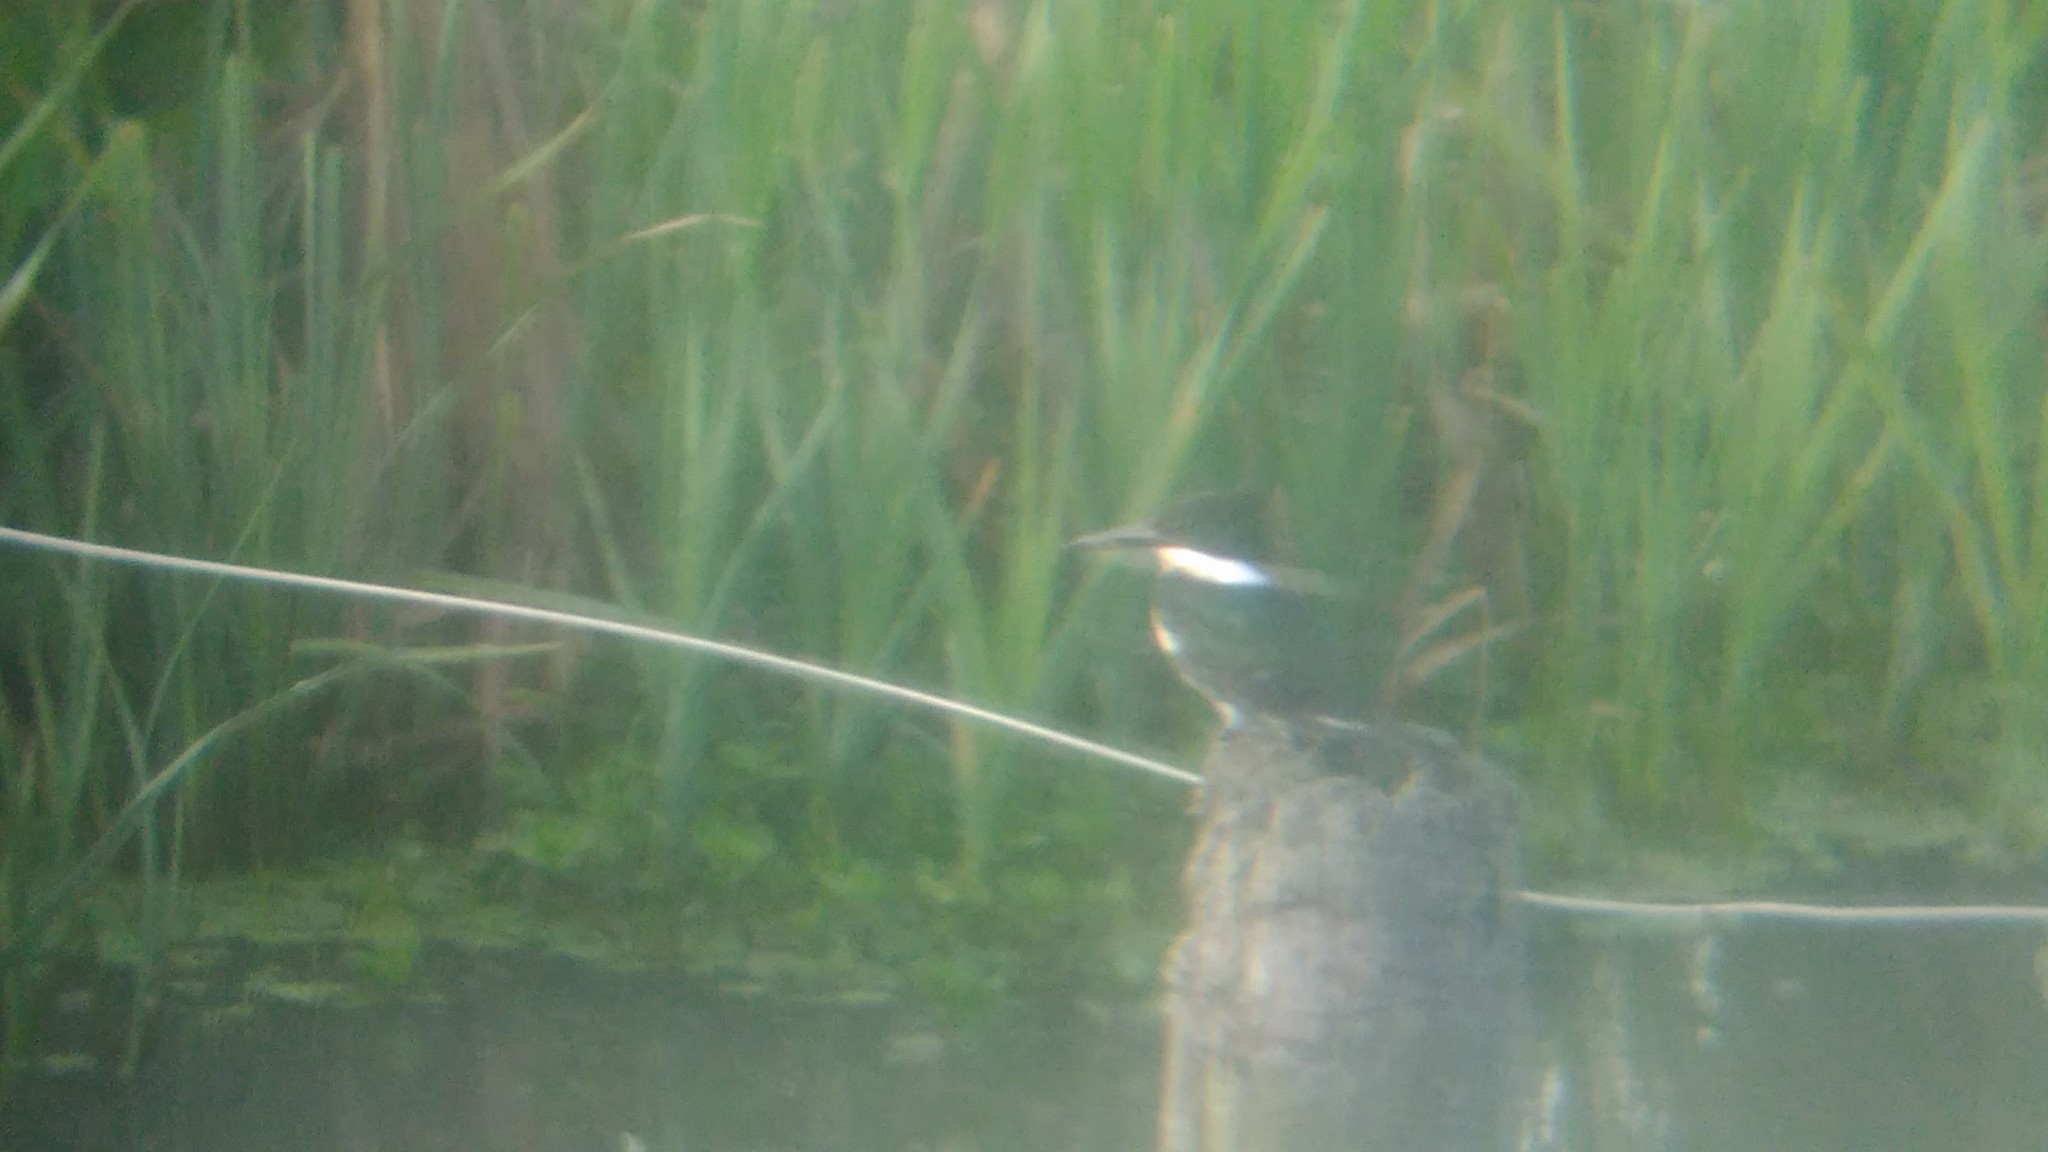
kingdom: Animalia
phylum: Chordata
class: Aves
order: Coraciiformes
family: Alcedinidae
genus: Chloroceryle
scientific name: Chloroceryle americana
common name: Green kingfisher
